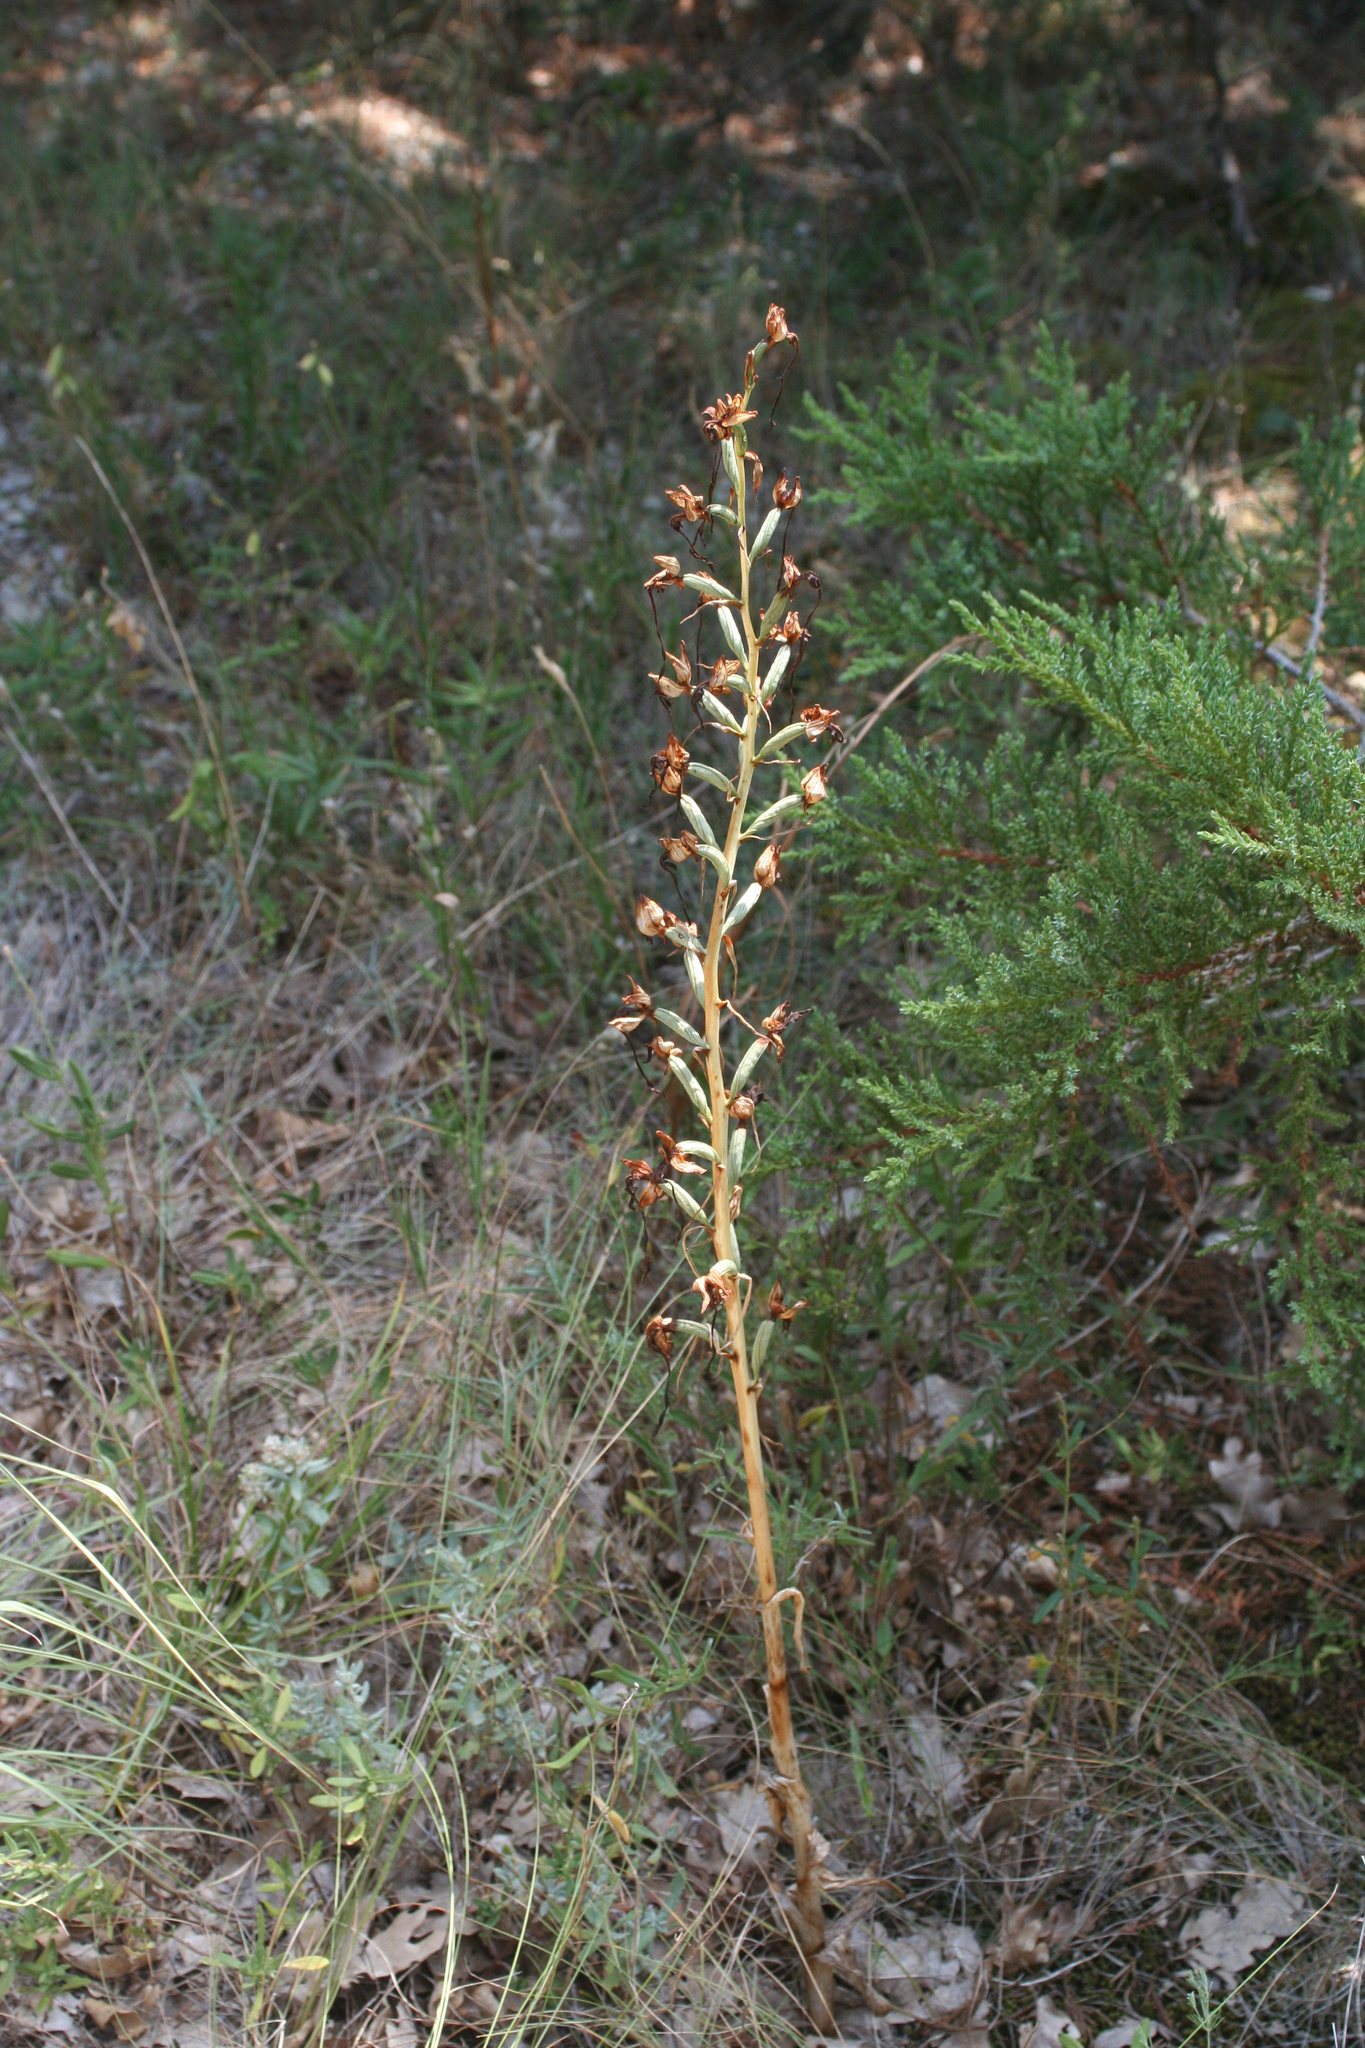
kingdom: Plantae
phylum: Tracheophyta
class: Liliopsida
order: Asparagales
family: Orchidaceae
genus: Himantoglossum
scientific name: Himantoglossum caprinum
